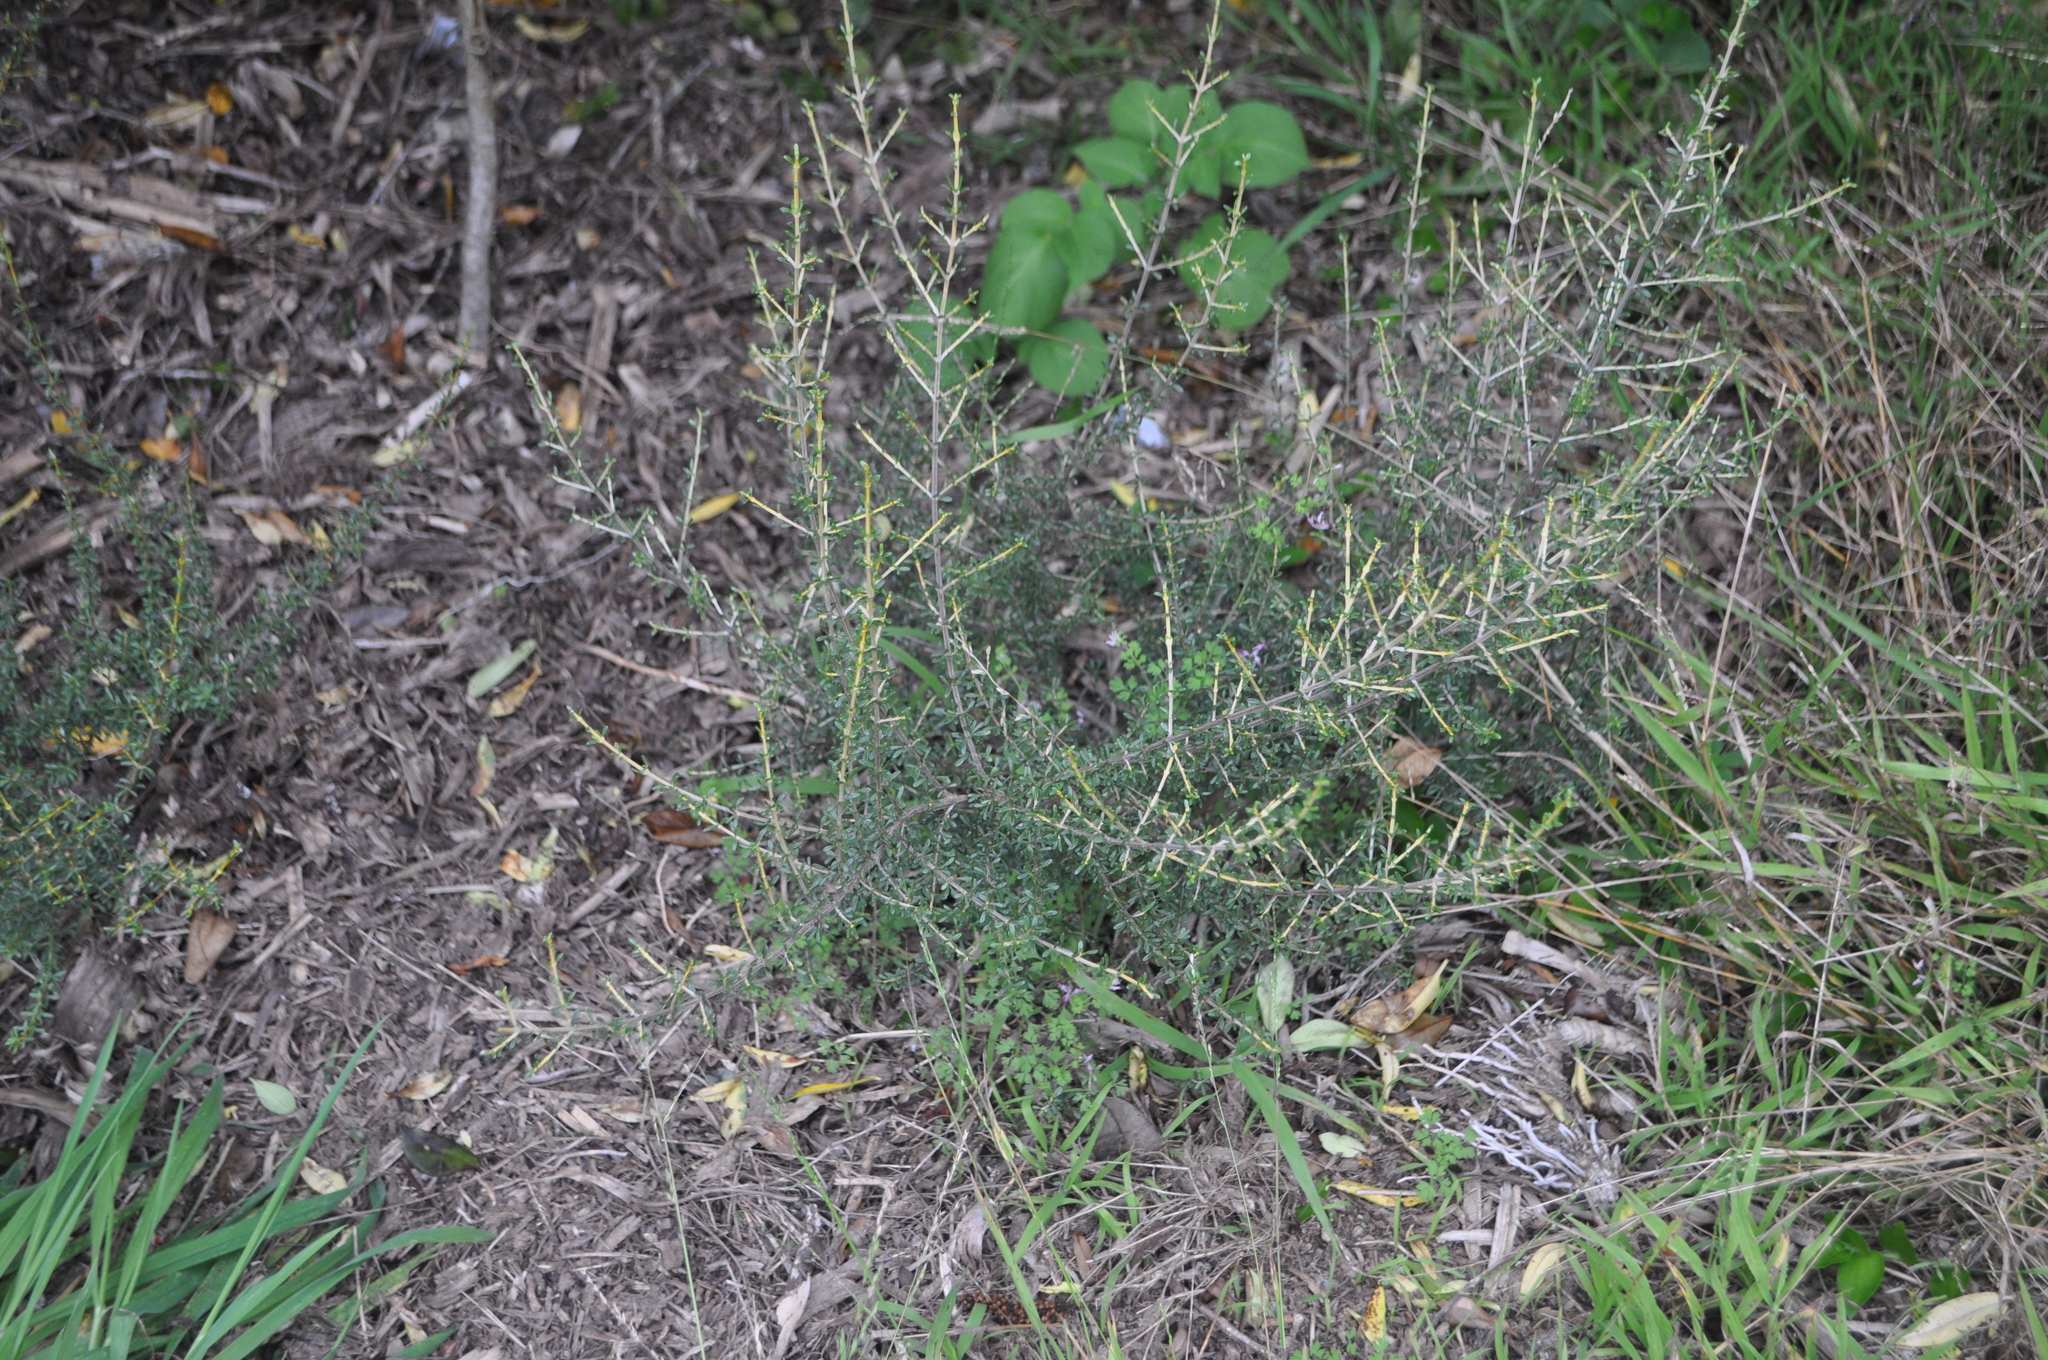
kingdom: Plantae
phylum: Tracheophyta
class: Magnoliopsida
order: Asterales
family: Asteraceae
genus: Olearia
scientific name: Olearia solandri
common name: Coastal daisybush
